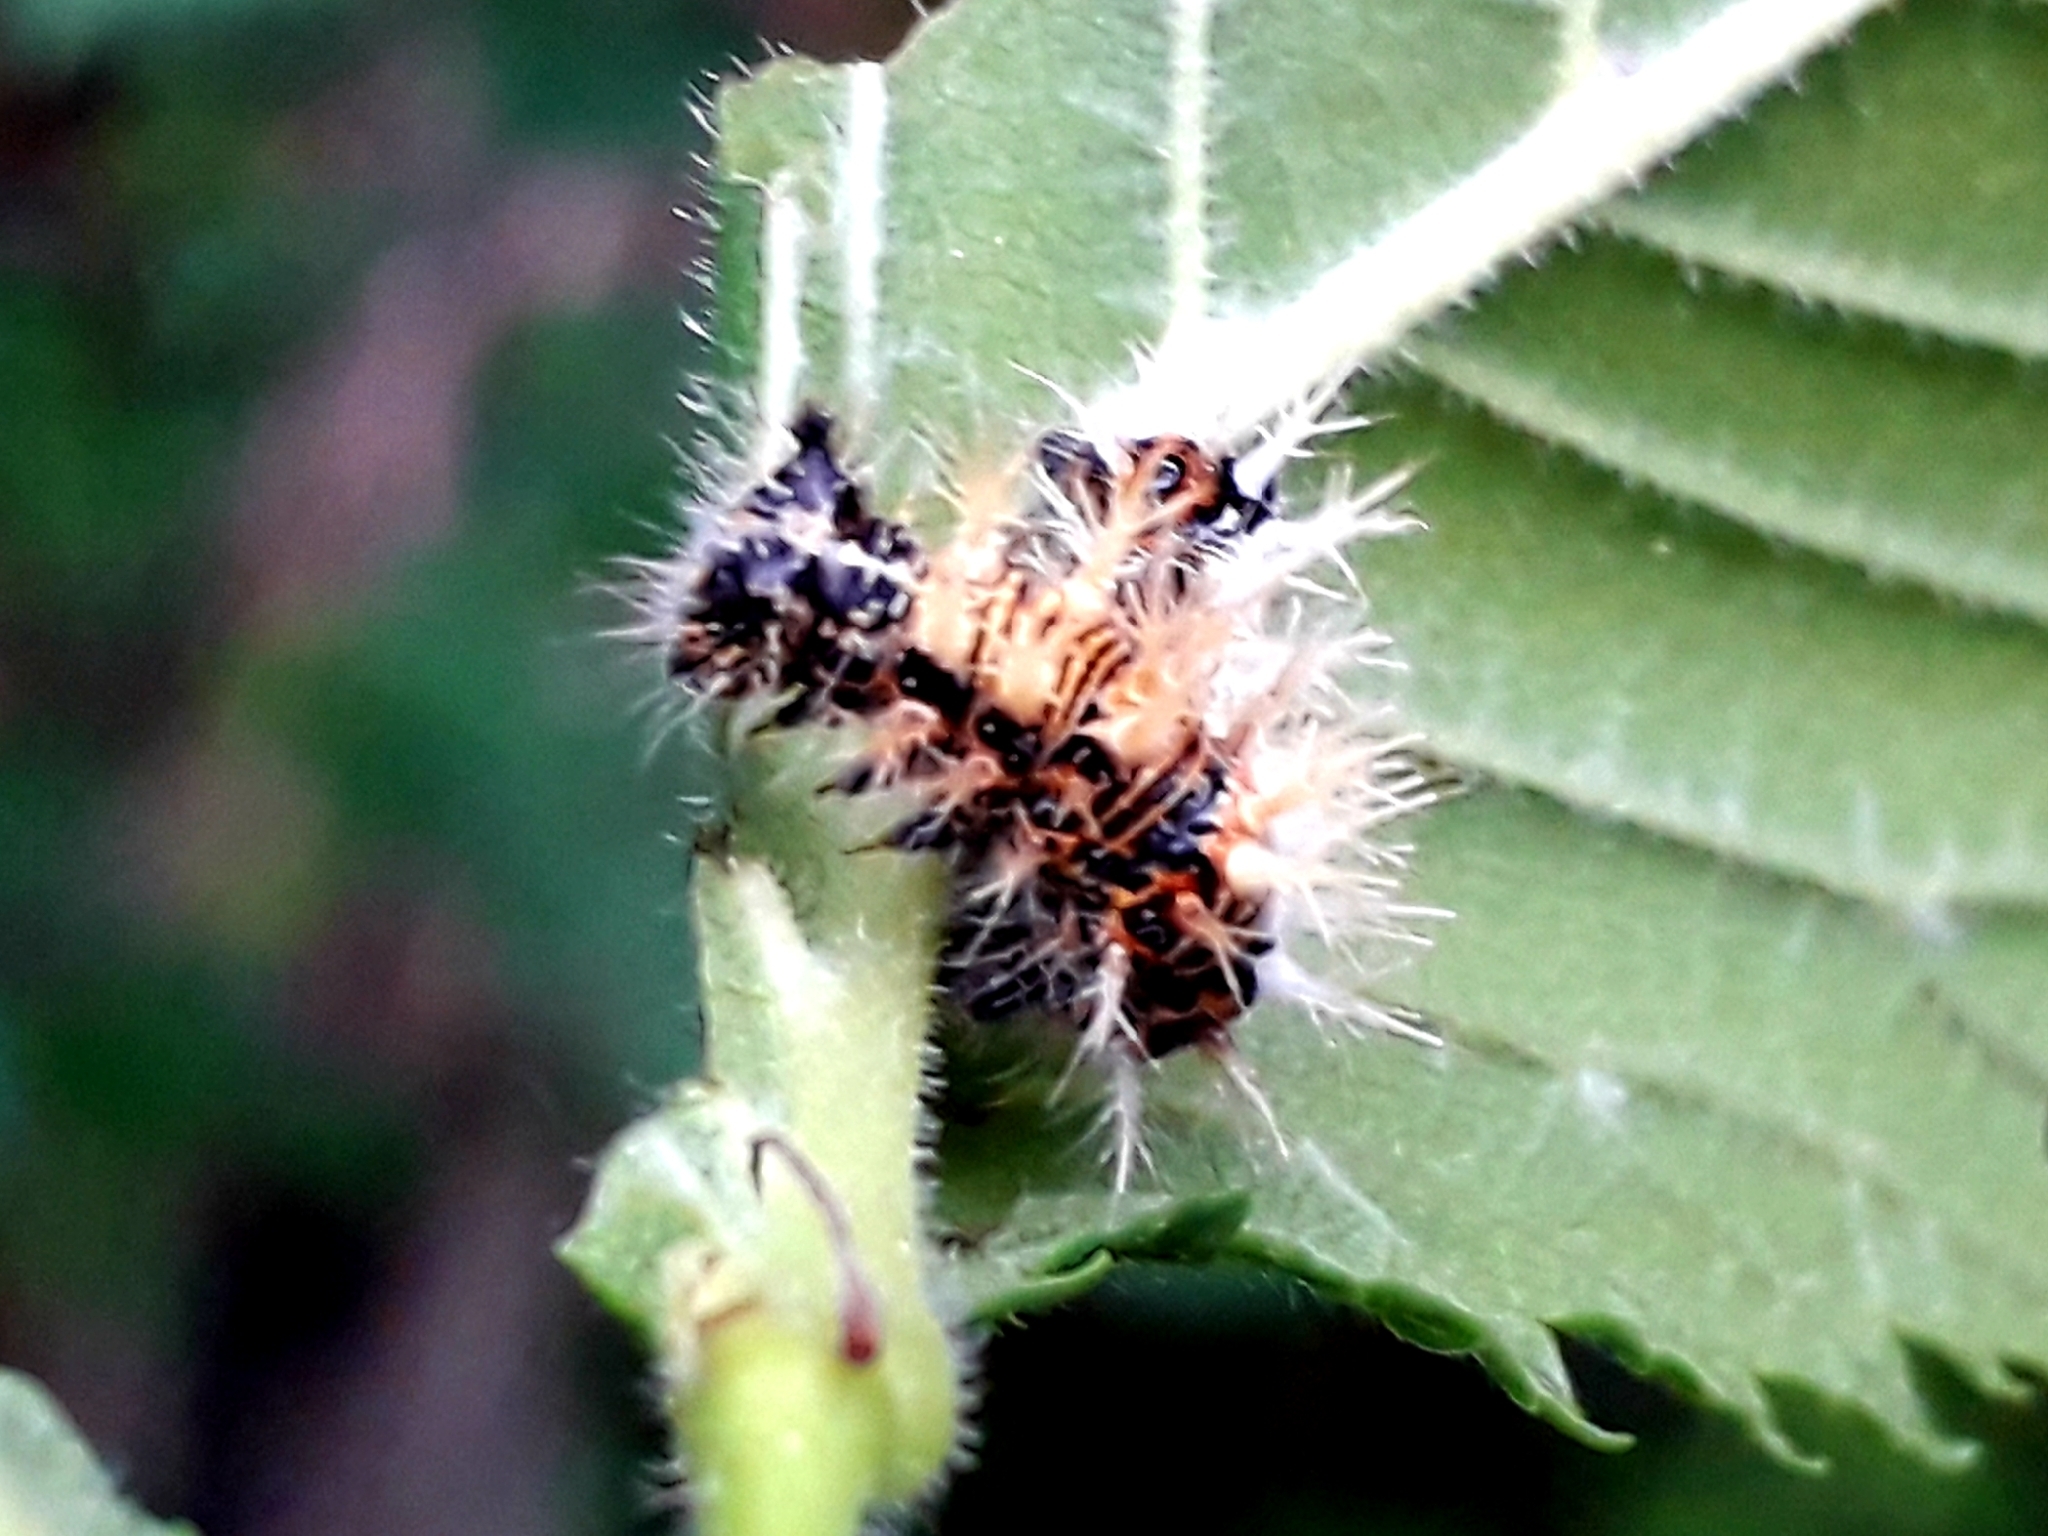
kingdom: Animalia
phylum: Arthropoda
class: Insecta
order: Lepidoptera
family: Nymphalidae
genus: Polygonia
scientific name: Polygonia c-album
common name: Comma
